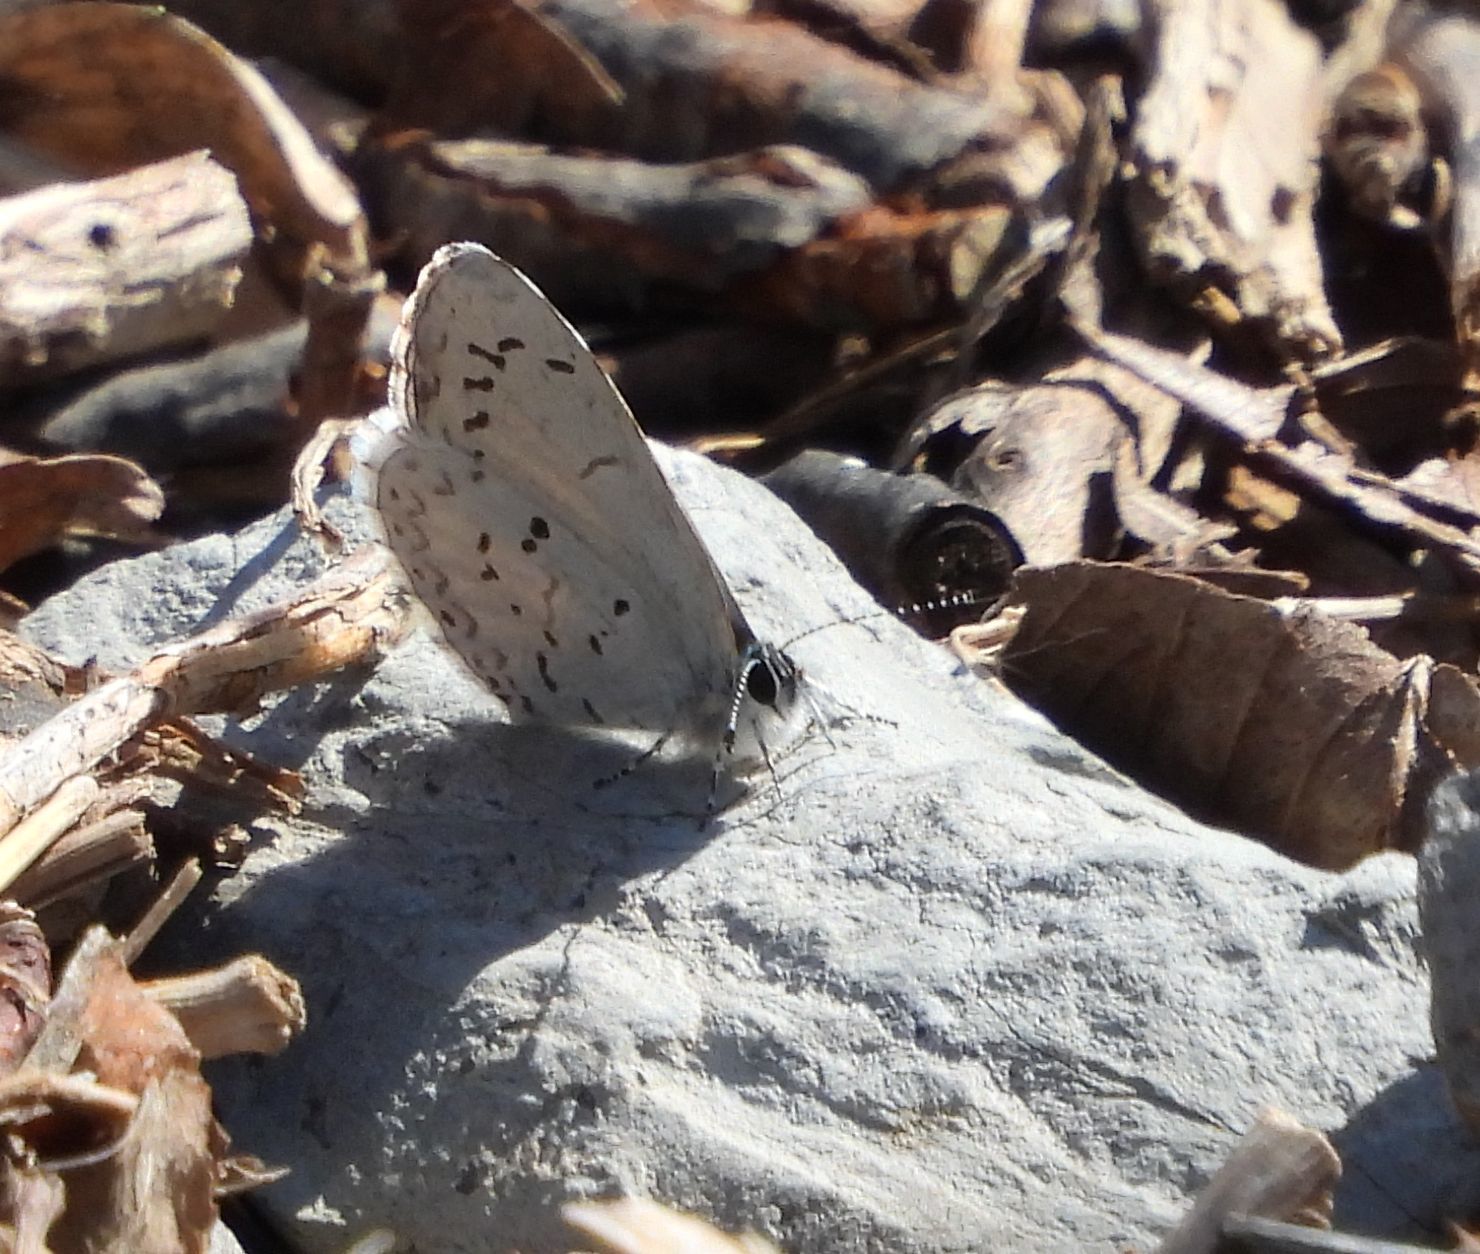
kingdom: Animalia
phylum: Arthropoda
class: Insecta
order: Lepidoptera
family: Lycaenidae
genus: Celastrina
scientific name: Celastrina lucia
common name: Lucia azure
